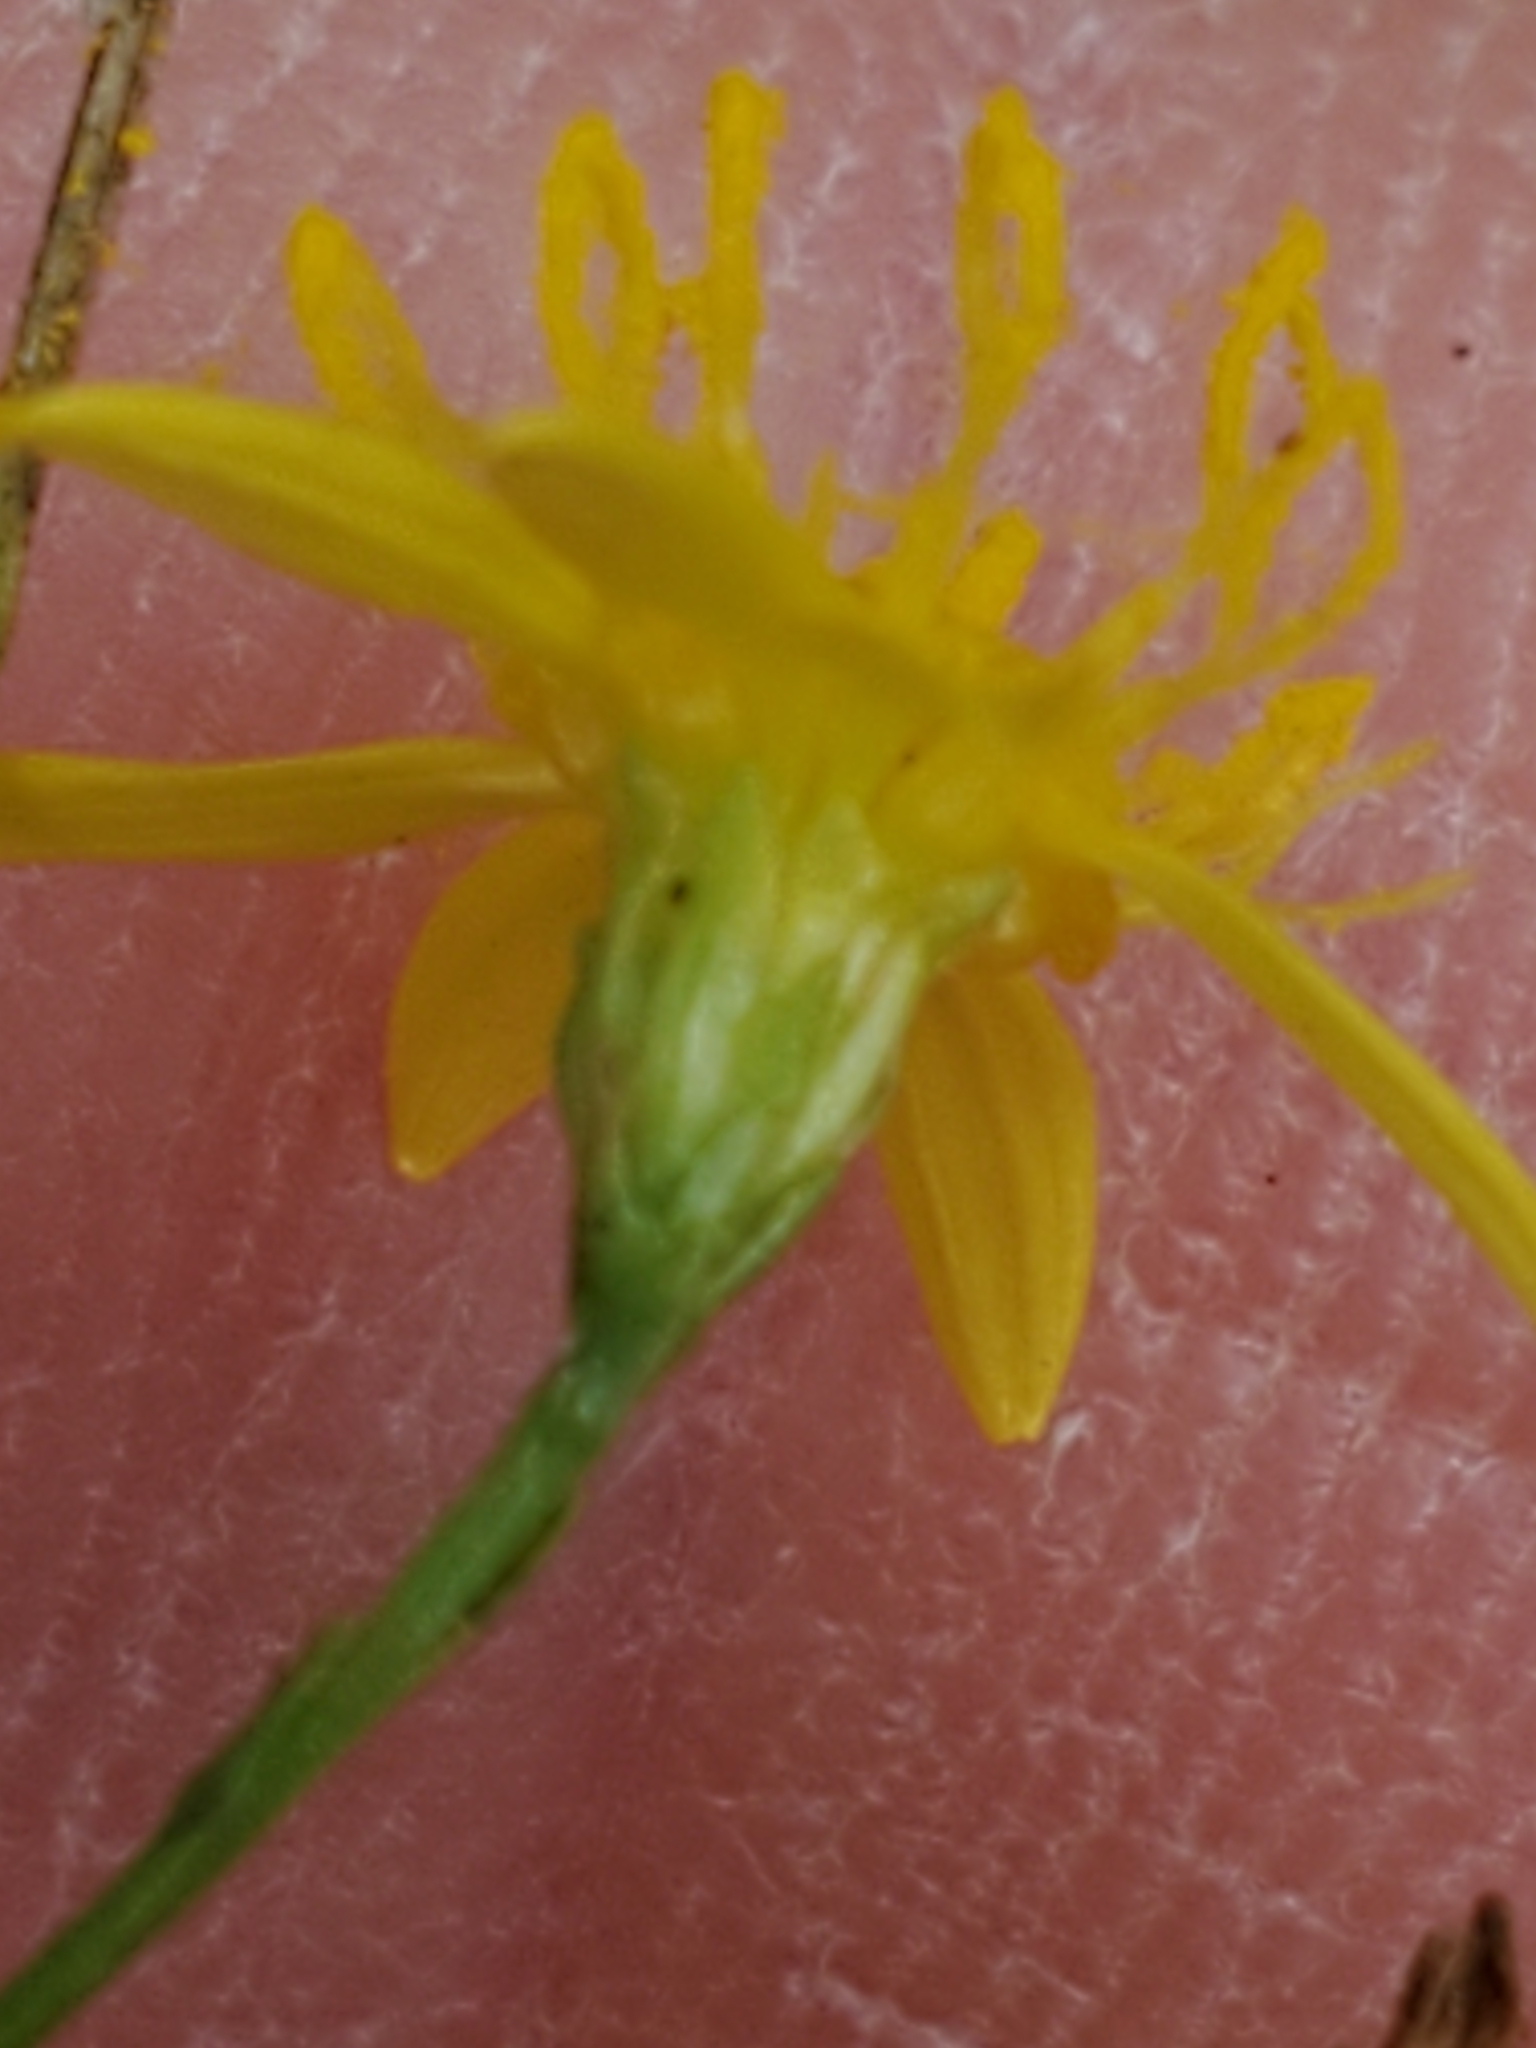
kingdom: Plantae
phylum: Tracheophyta
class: Magnoliopsida
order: Asterales
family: Asteraceae
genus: Gutierrezia
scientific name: Gutierrezia texana
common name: Texas snakeweed
